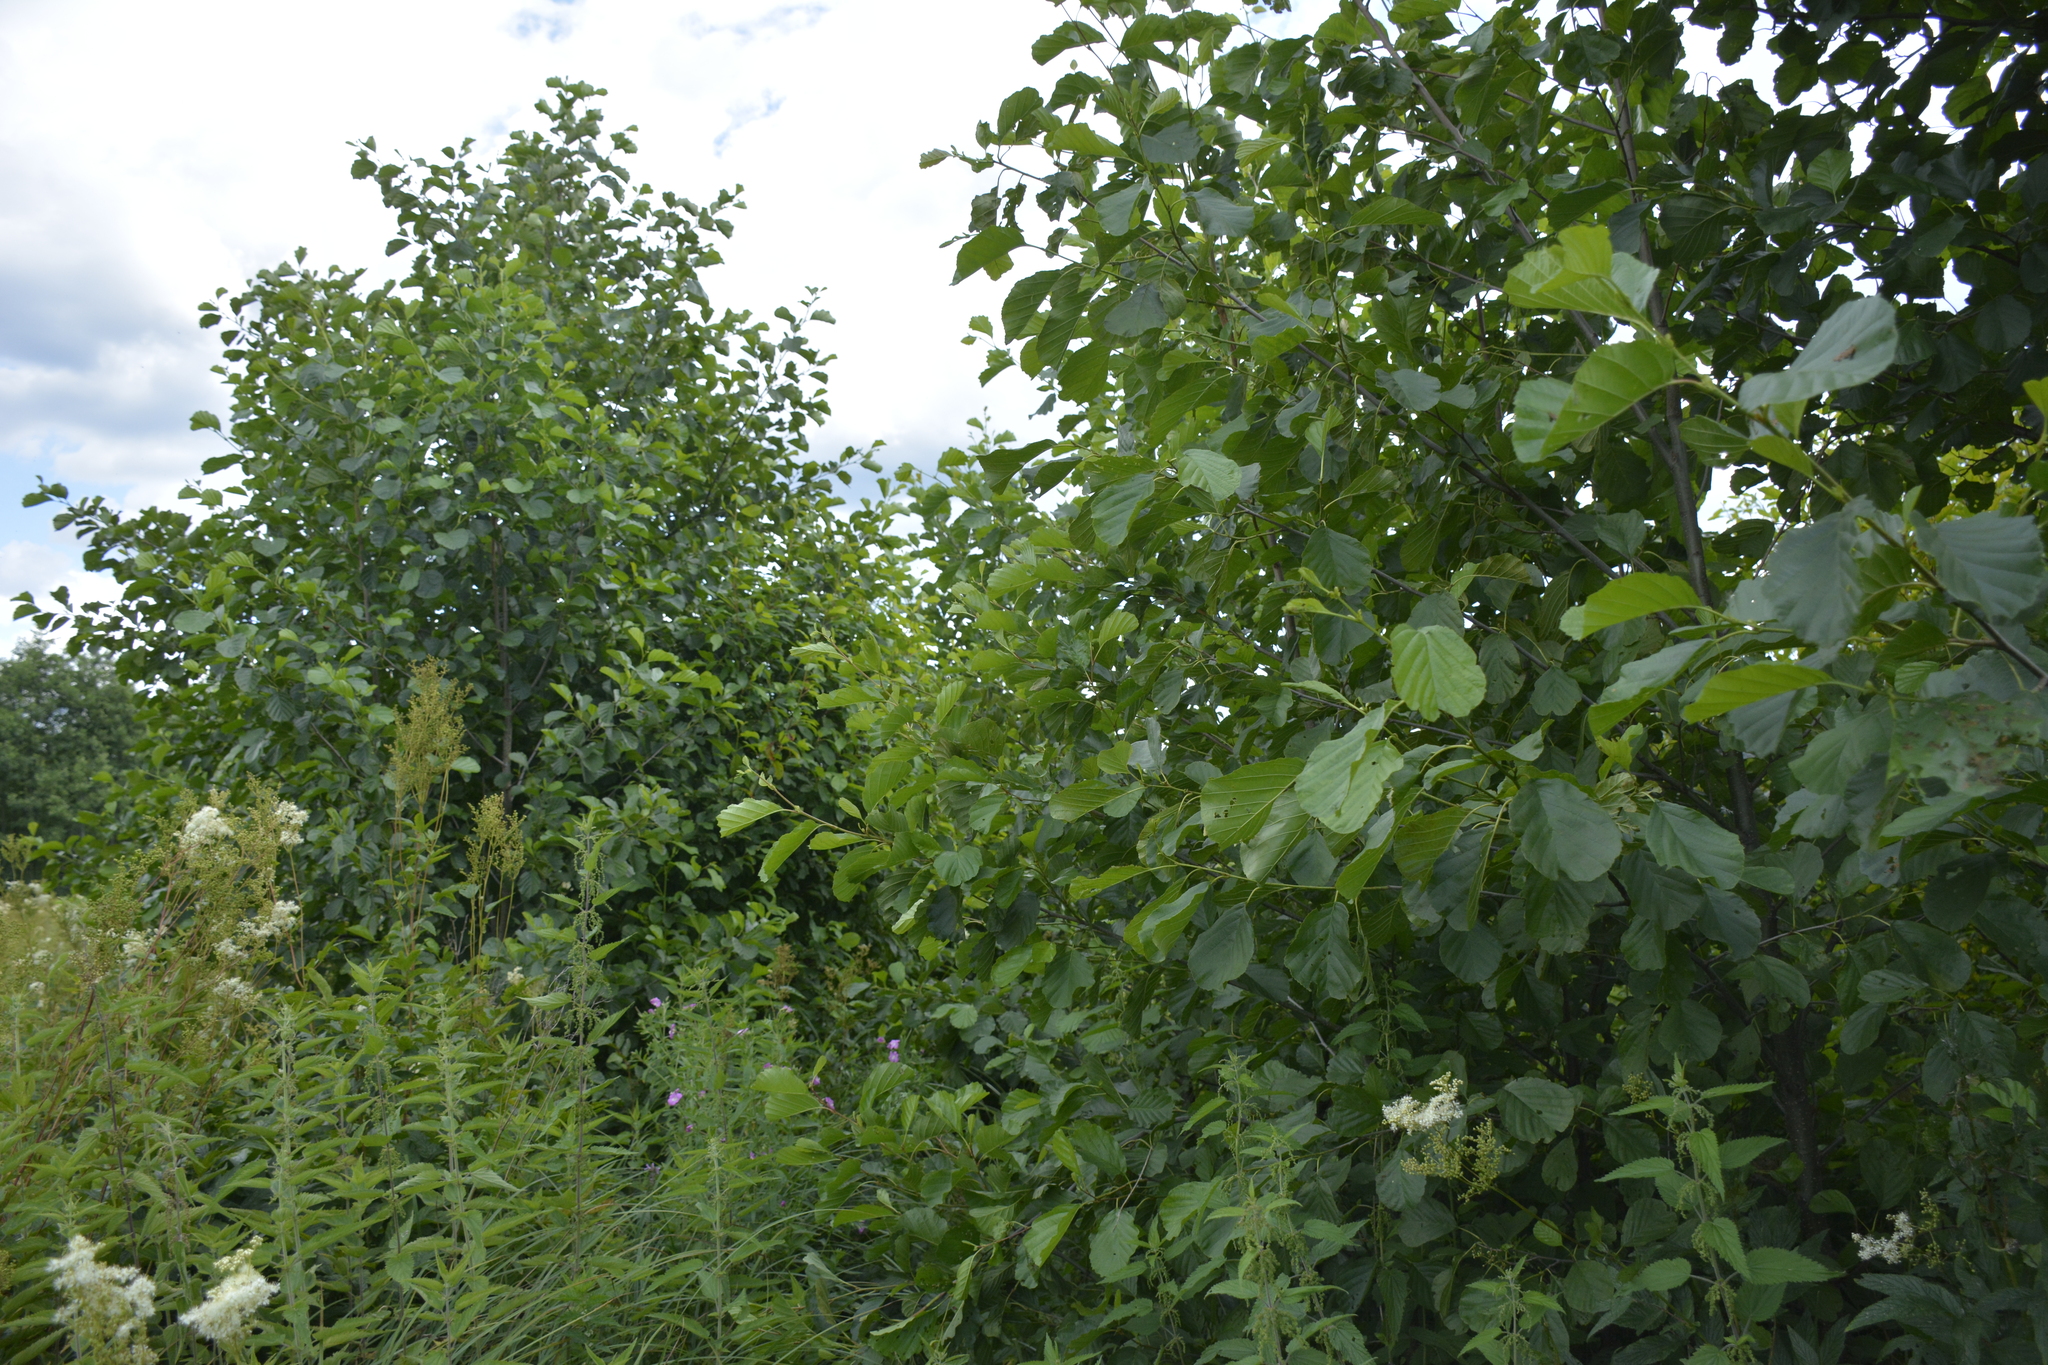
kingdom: Plantae
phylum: Tracheophyta
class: Magnoliopsida
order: Fagales
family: Betulaceae
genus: Alnus
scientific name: Alnus glutinosa
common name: Black alder
